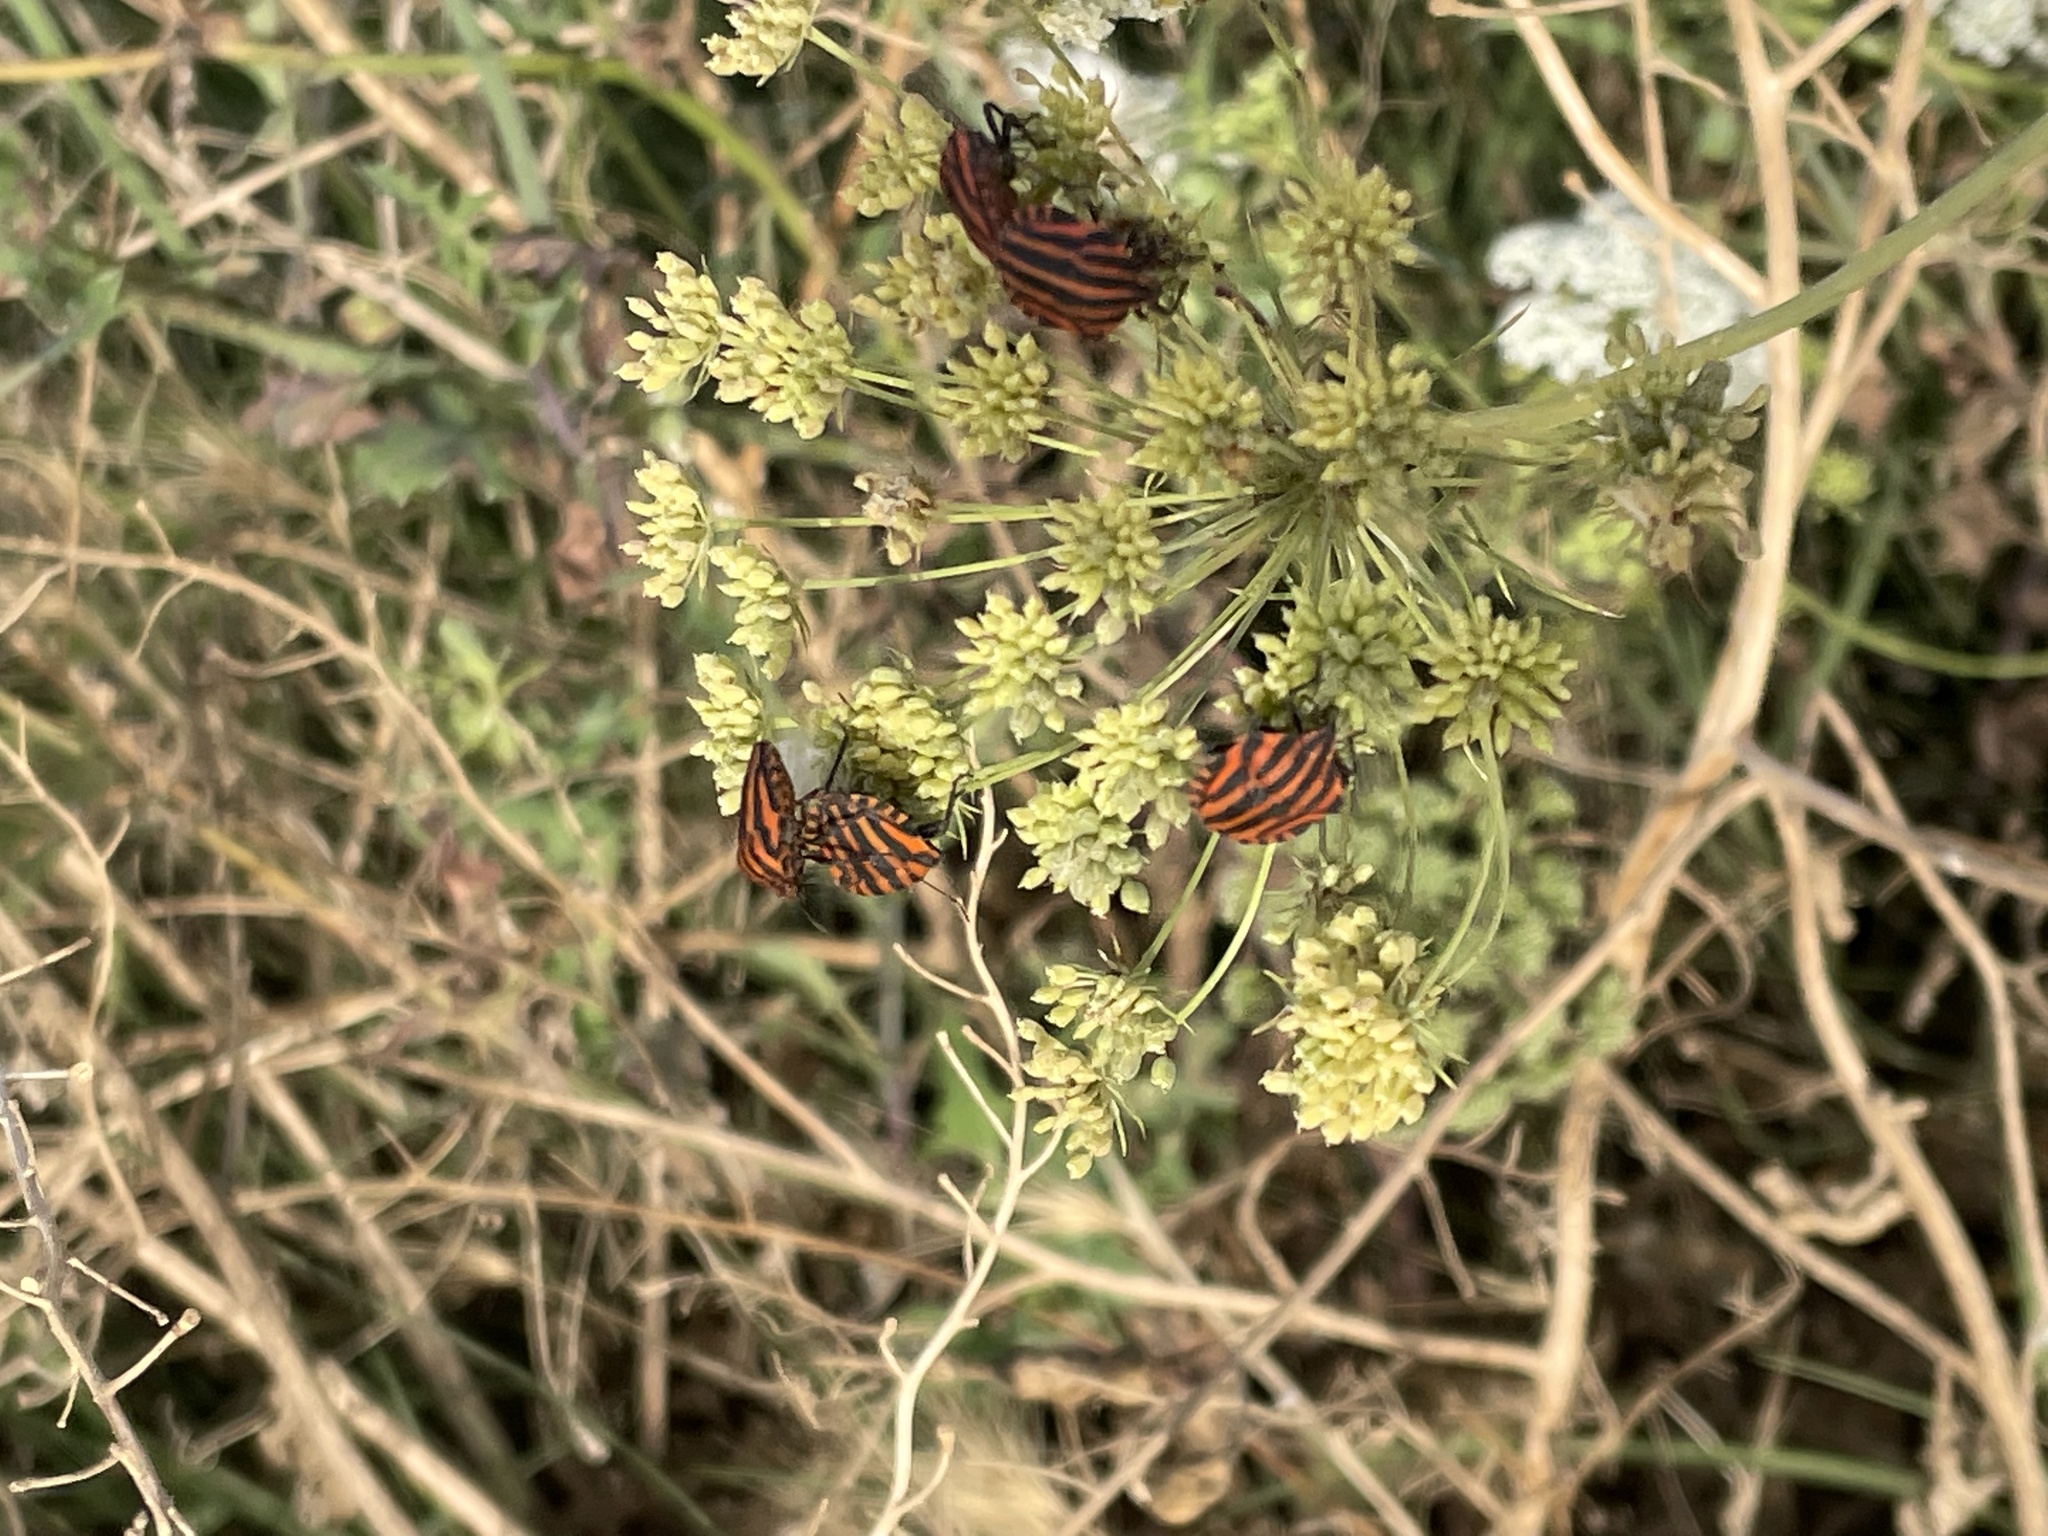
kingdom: Animalia
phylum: Arthropoda
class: Insecta
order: Hemiptera
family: Pentatomidae
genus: Graphosoma
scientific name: Graphosoma italicum
